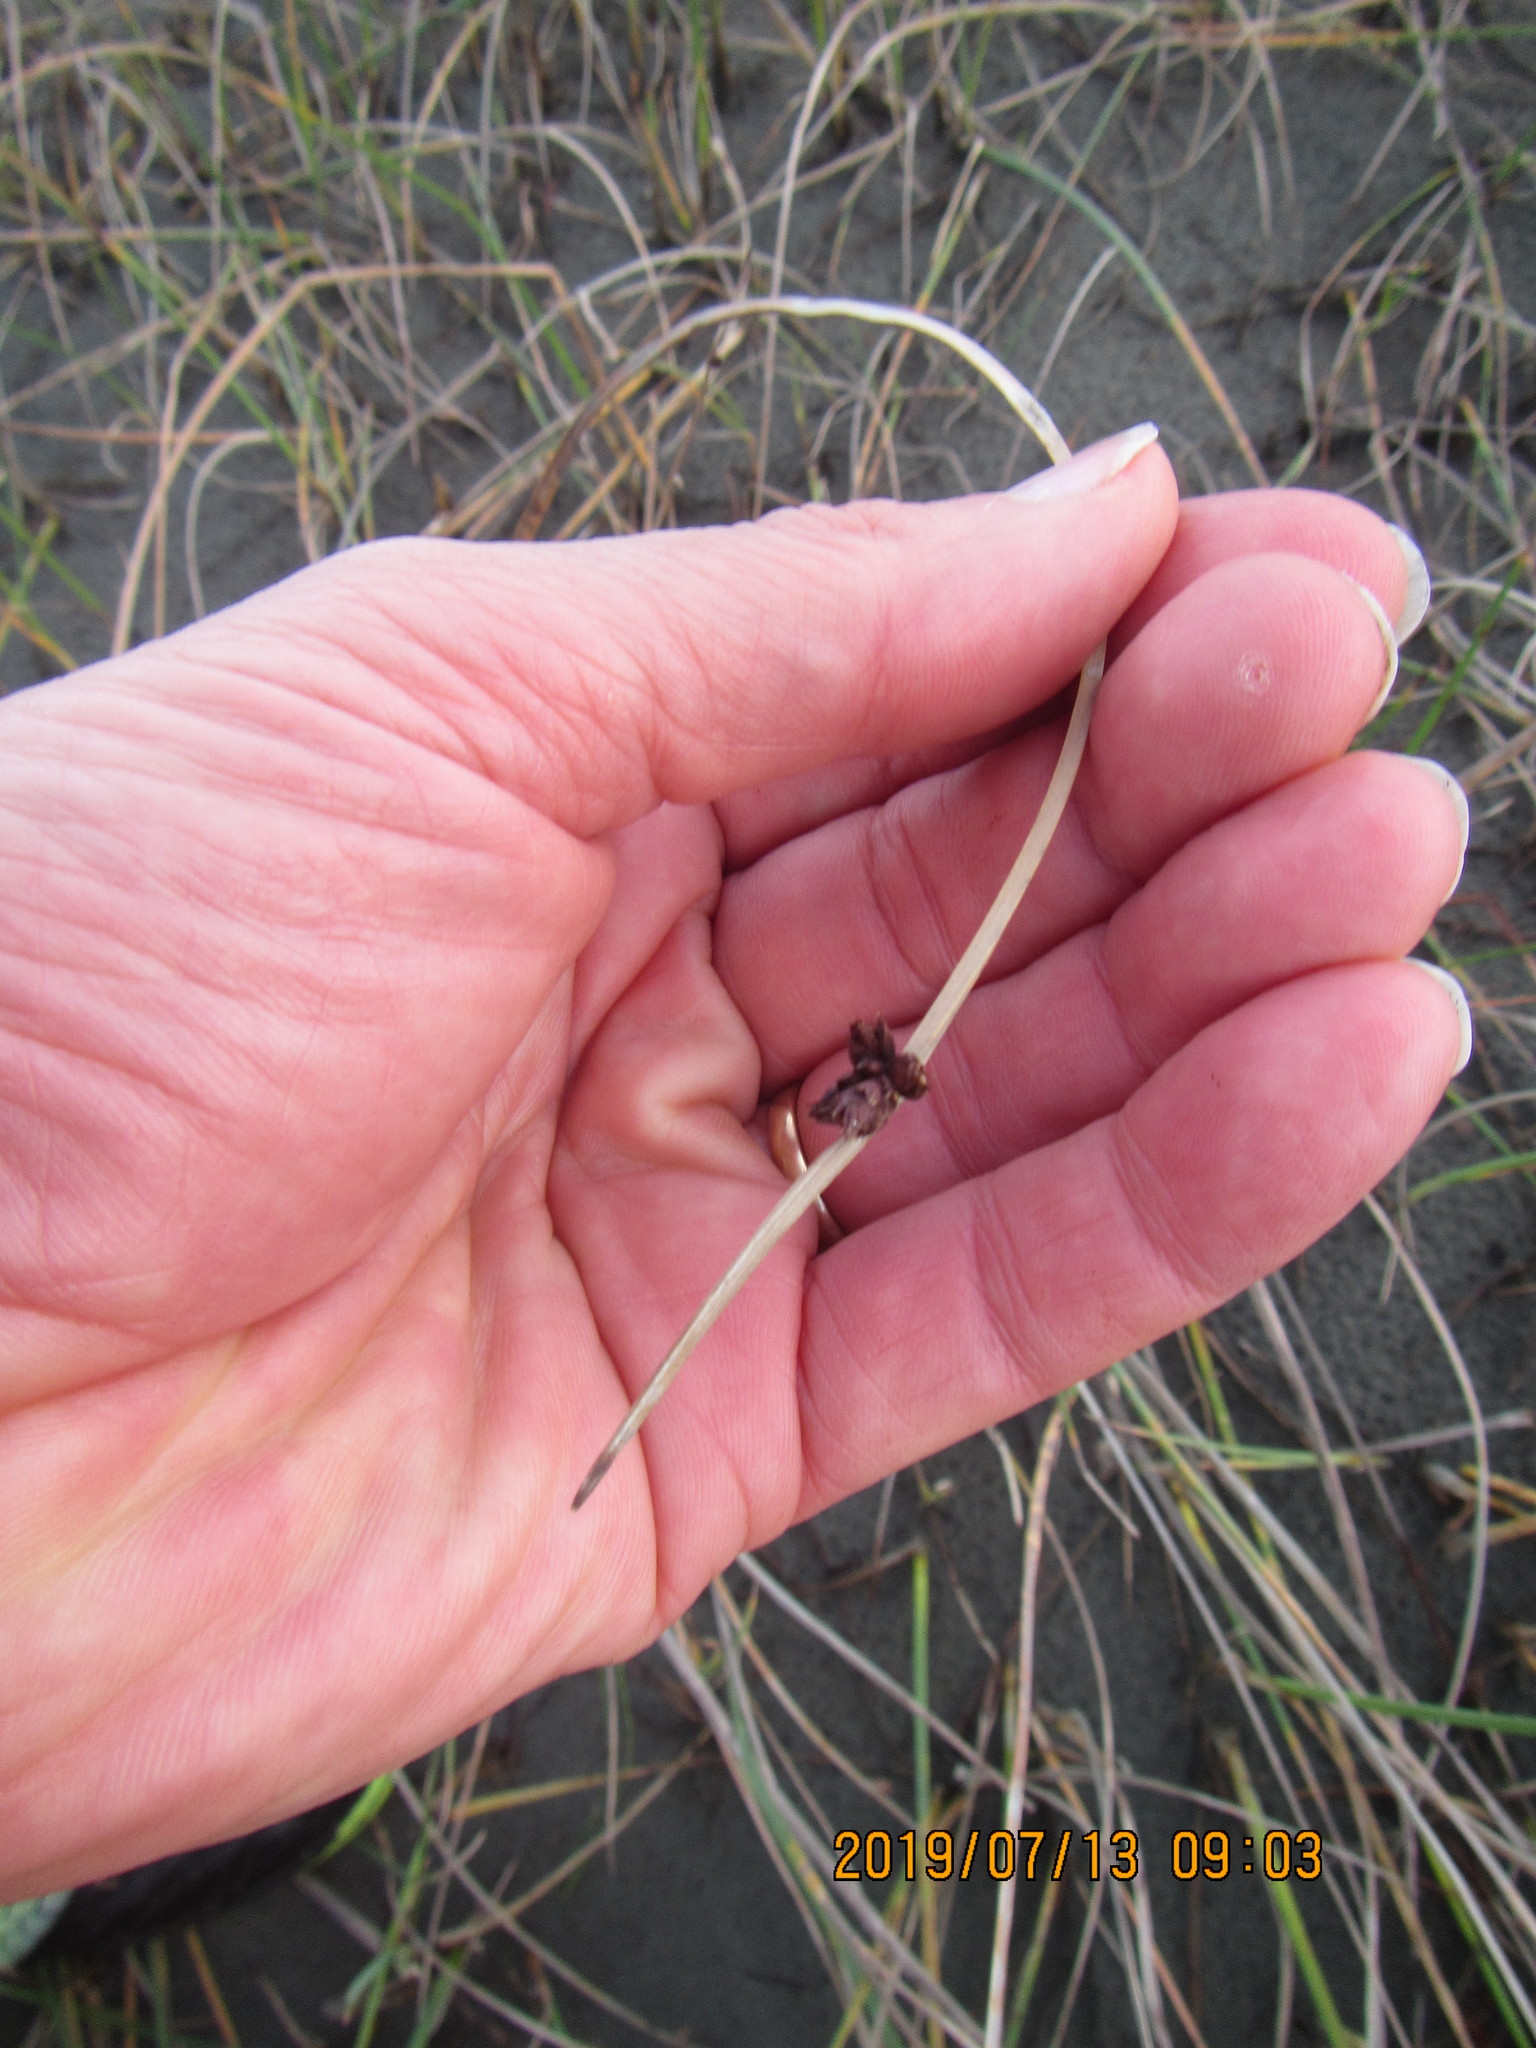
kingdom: Plantae
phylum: Tracheophyta
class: Liliopsida
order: Poales
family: Cyperaceae
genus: Schoenoplectus
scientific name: Schoenoplectus pungens
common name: Sharp club-rush
